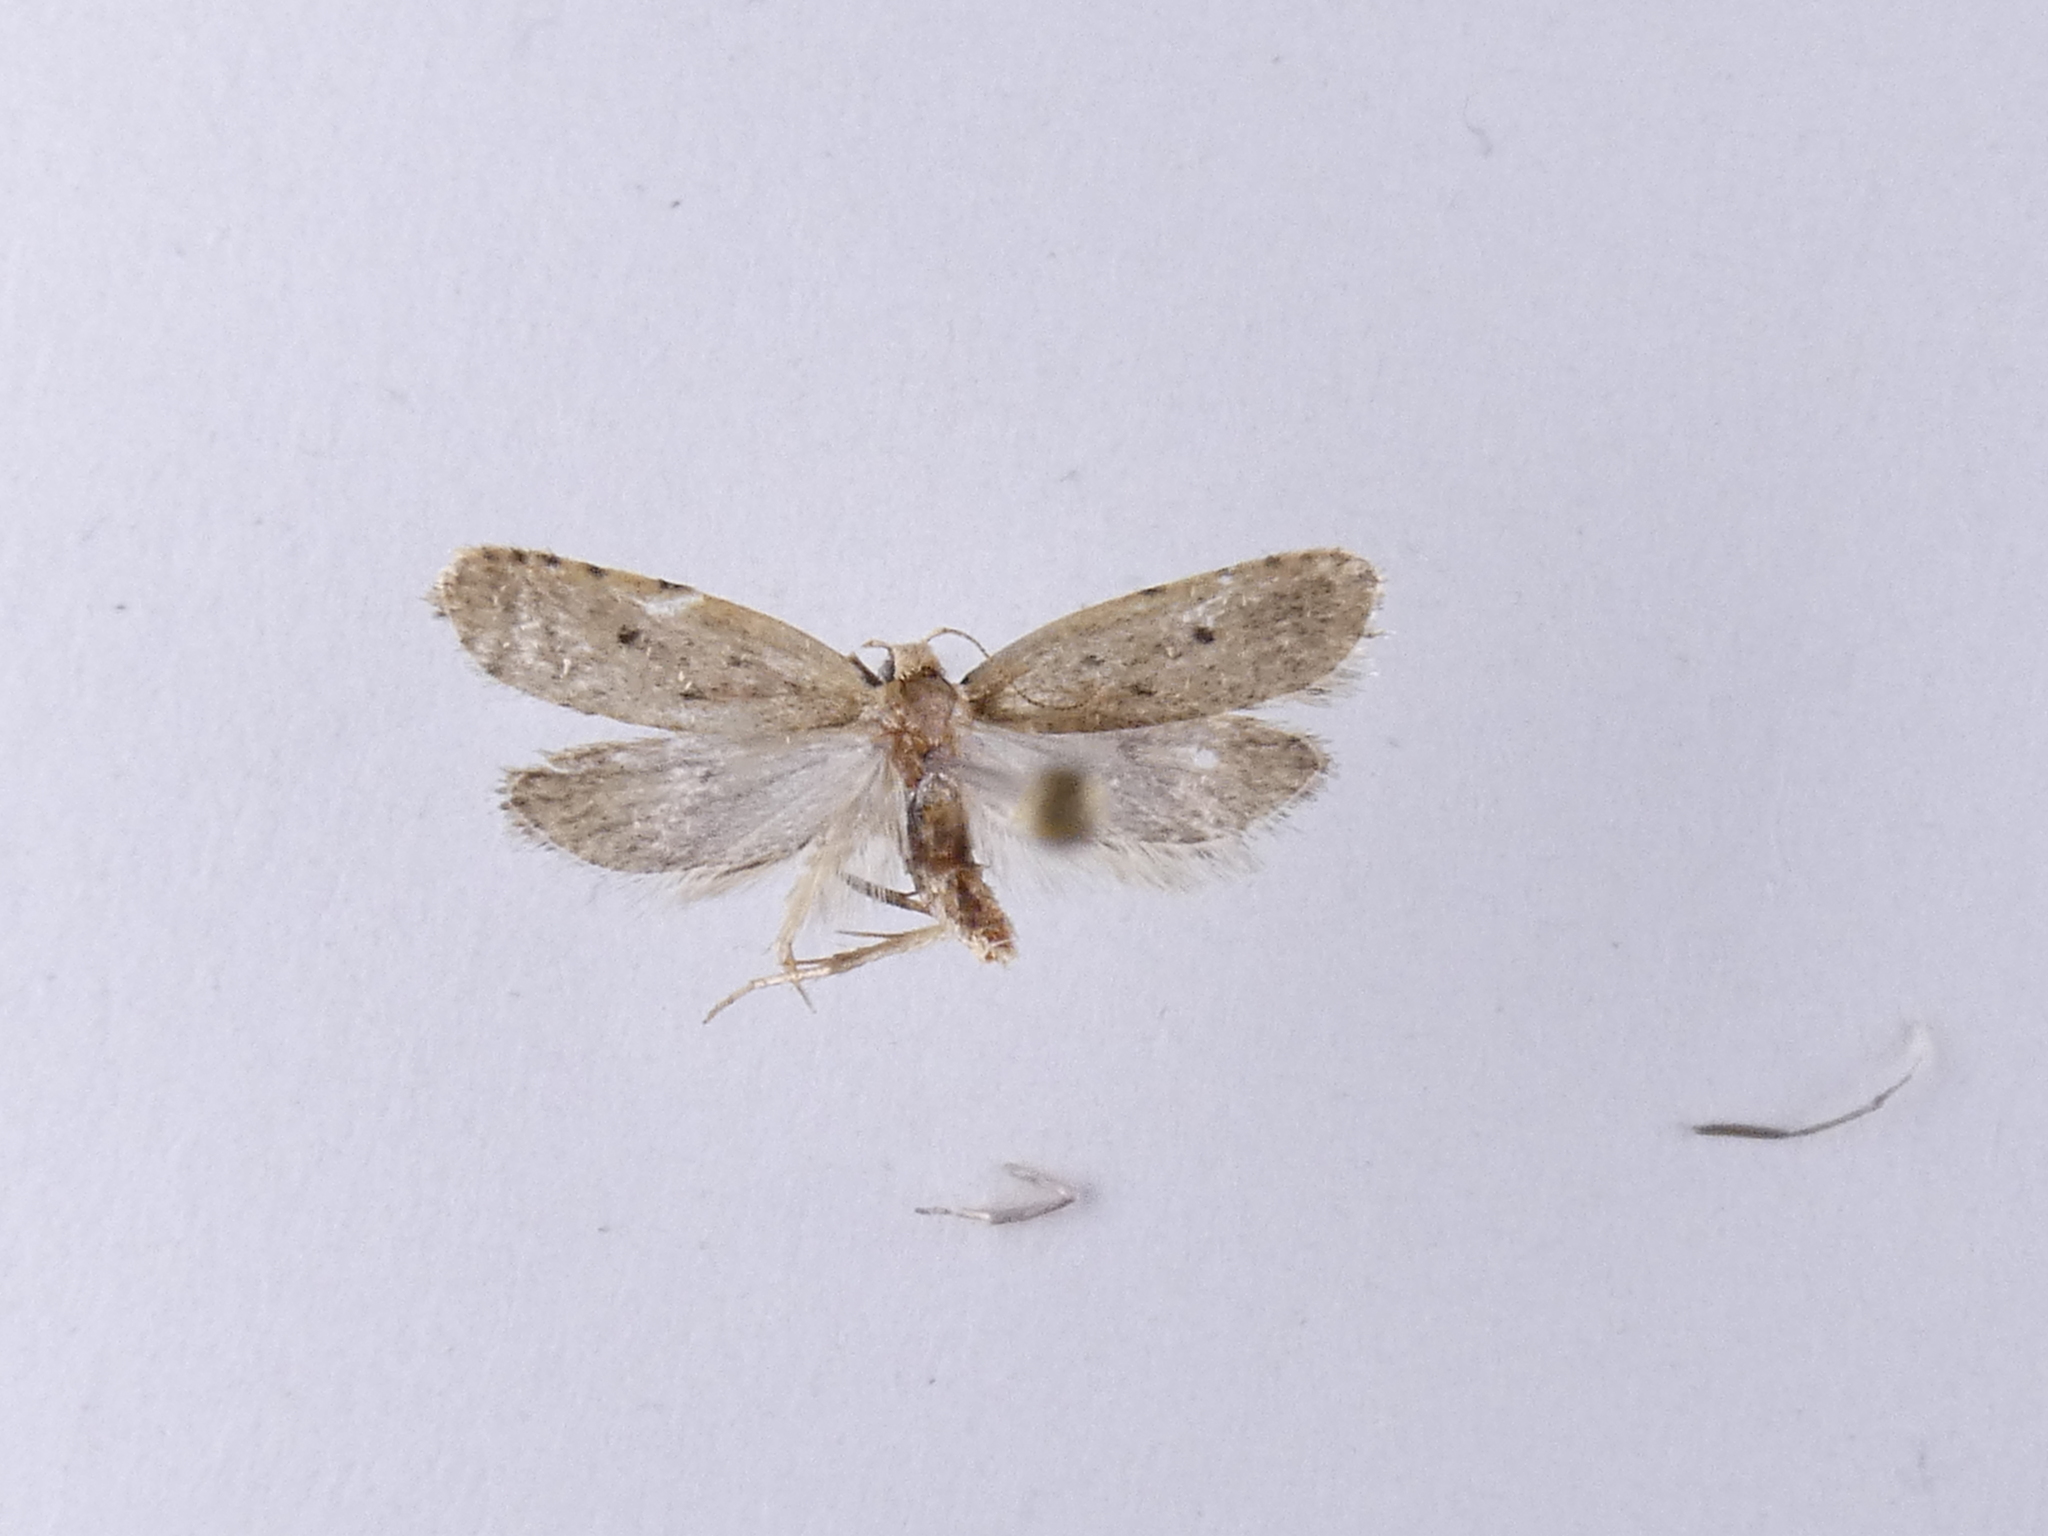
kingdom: Animalia
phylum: Arthropoda
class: Insecta
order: Lepidoptera
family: Oecophoridae
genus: Gymnobathra
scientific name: Gymnobathra calliploca
